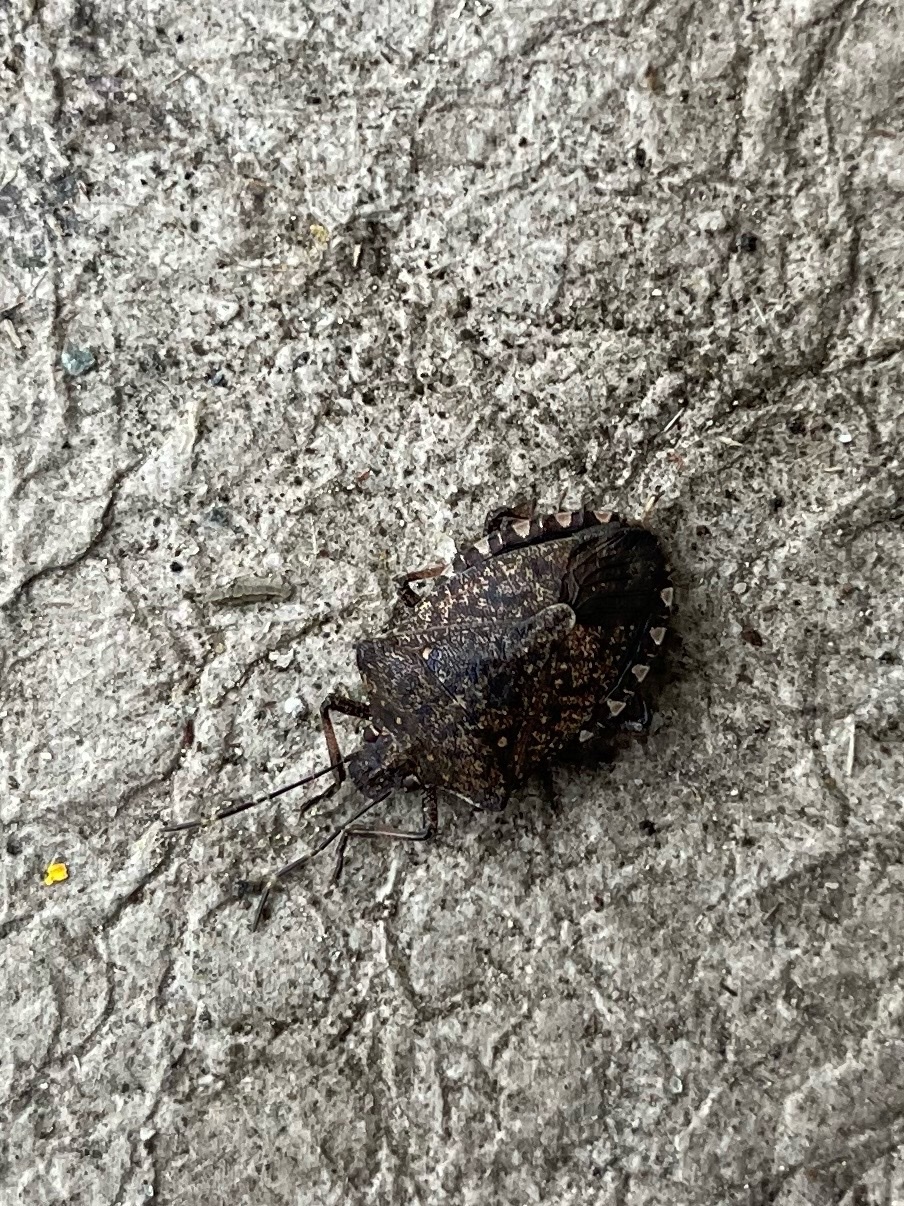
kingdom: Animalia
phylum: Arthropoda
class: Insecta
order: Hemiptera
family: Pentatomidae
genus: Halyomorpha
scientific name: Halyomorpha halys
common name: Brown marmorated stink bug
